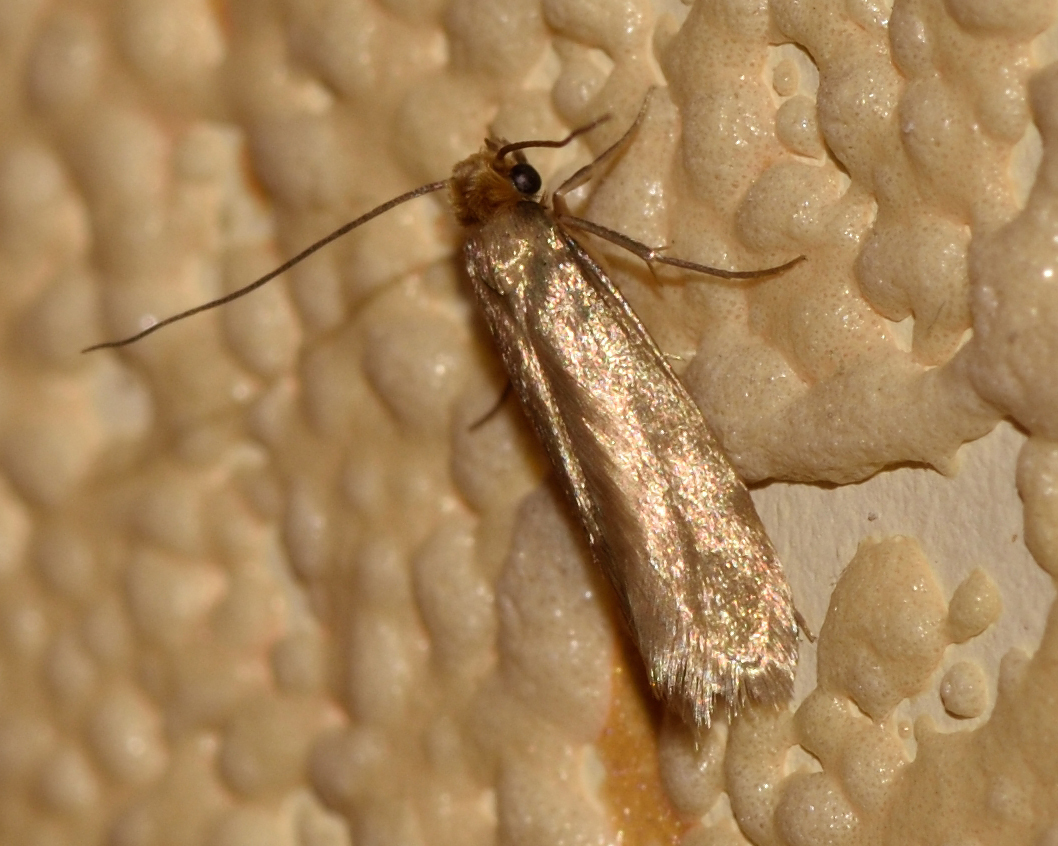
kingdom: Animalia
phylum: Arthropoda
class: Insecta
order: Lepidoptera
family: Tineidae
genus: Tineola
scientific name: Tineola bisselliella
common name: Webbing clothes moth
